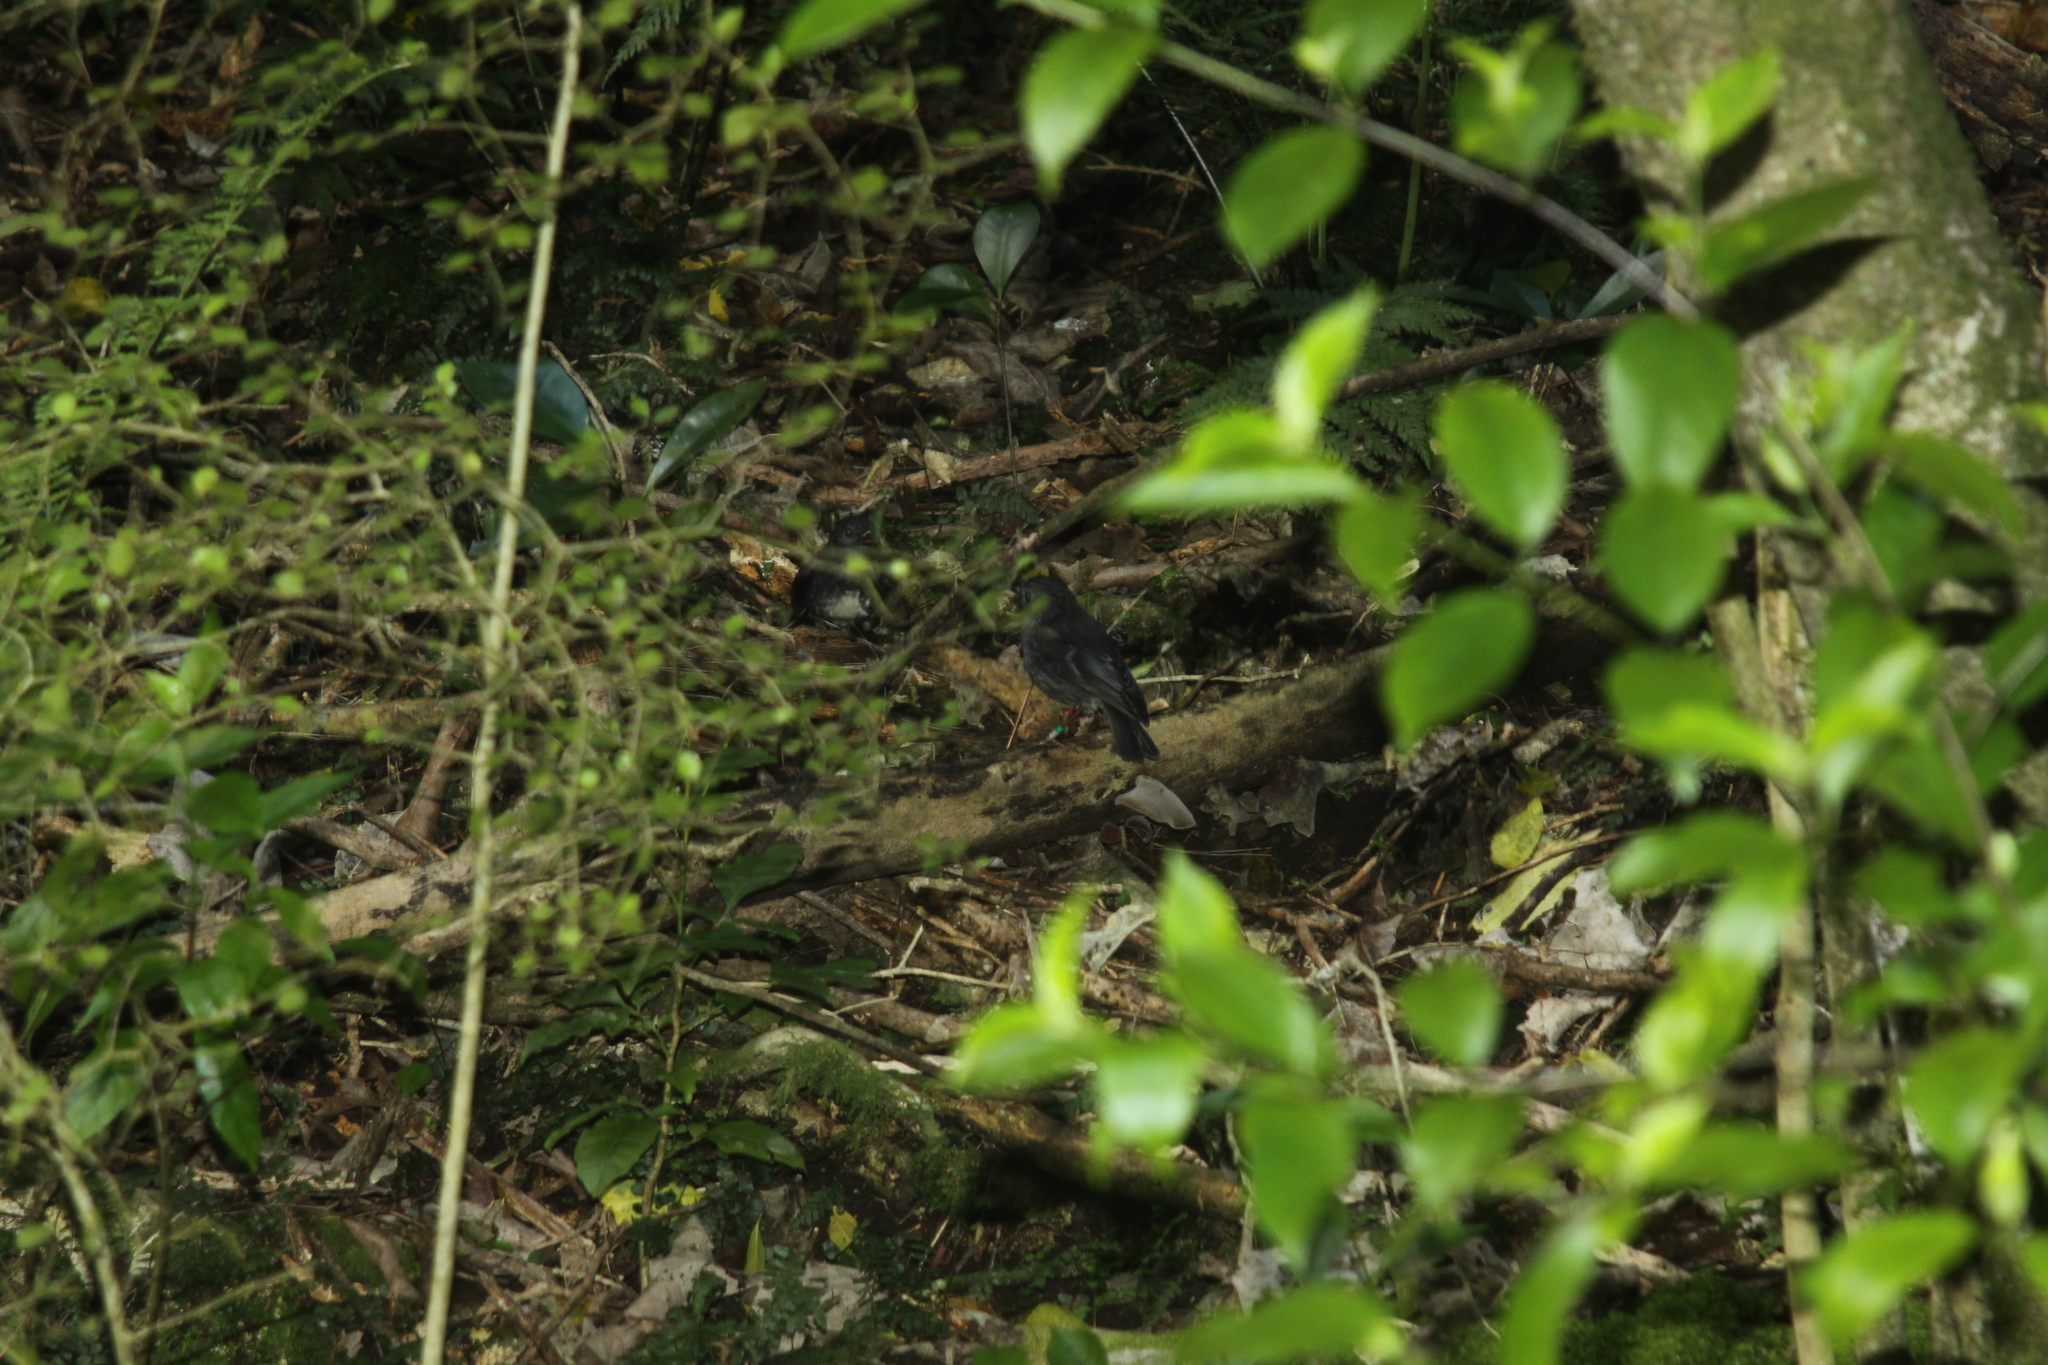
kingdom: Animalia
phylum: Chordata
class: Aves
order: Passeriformes
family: Petroicidae
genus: Petroica
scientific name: Petroica australis
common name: New zealand robin
